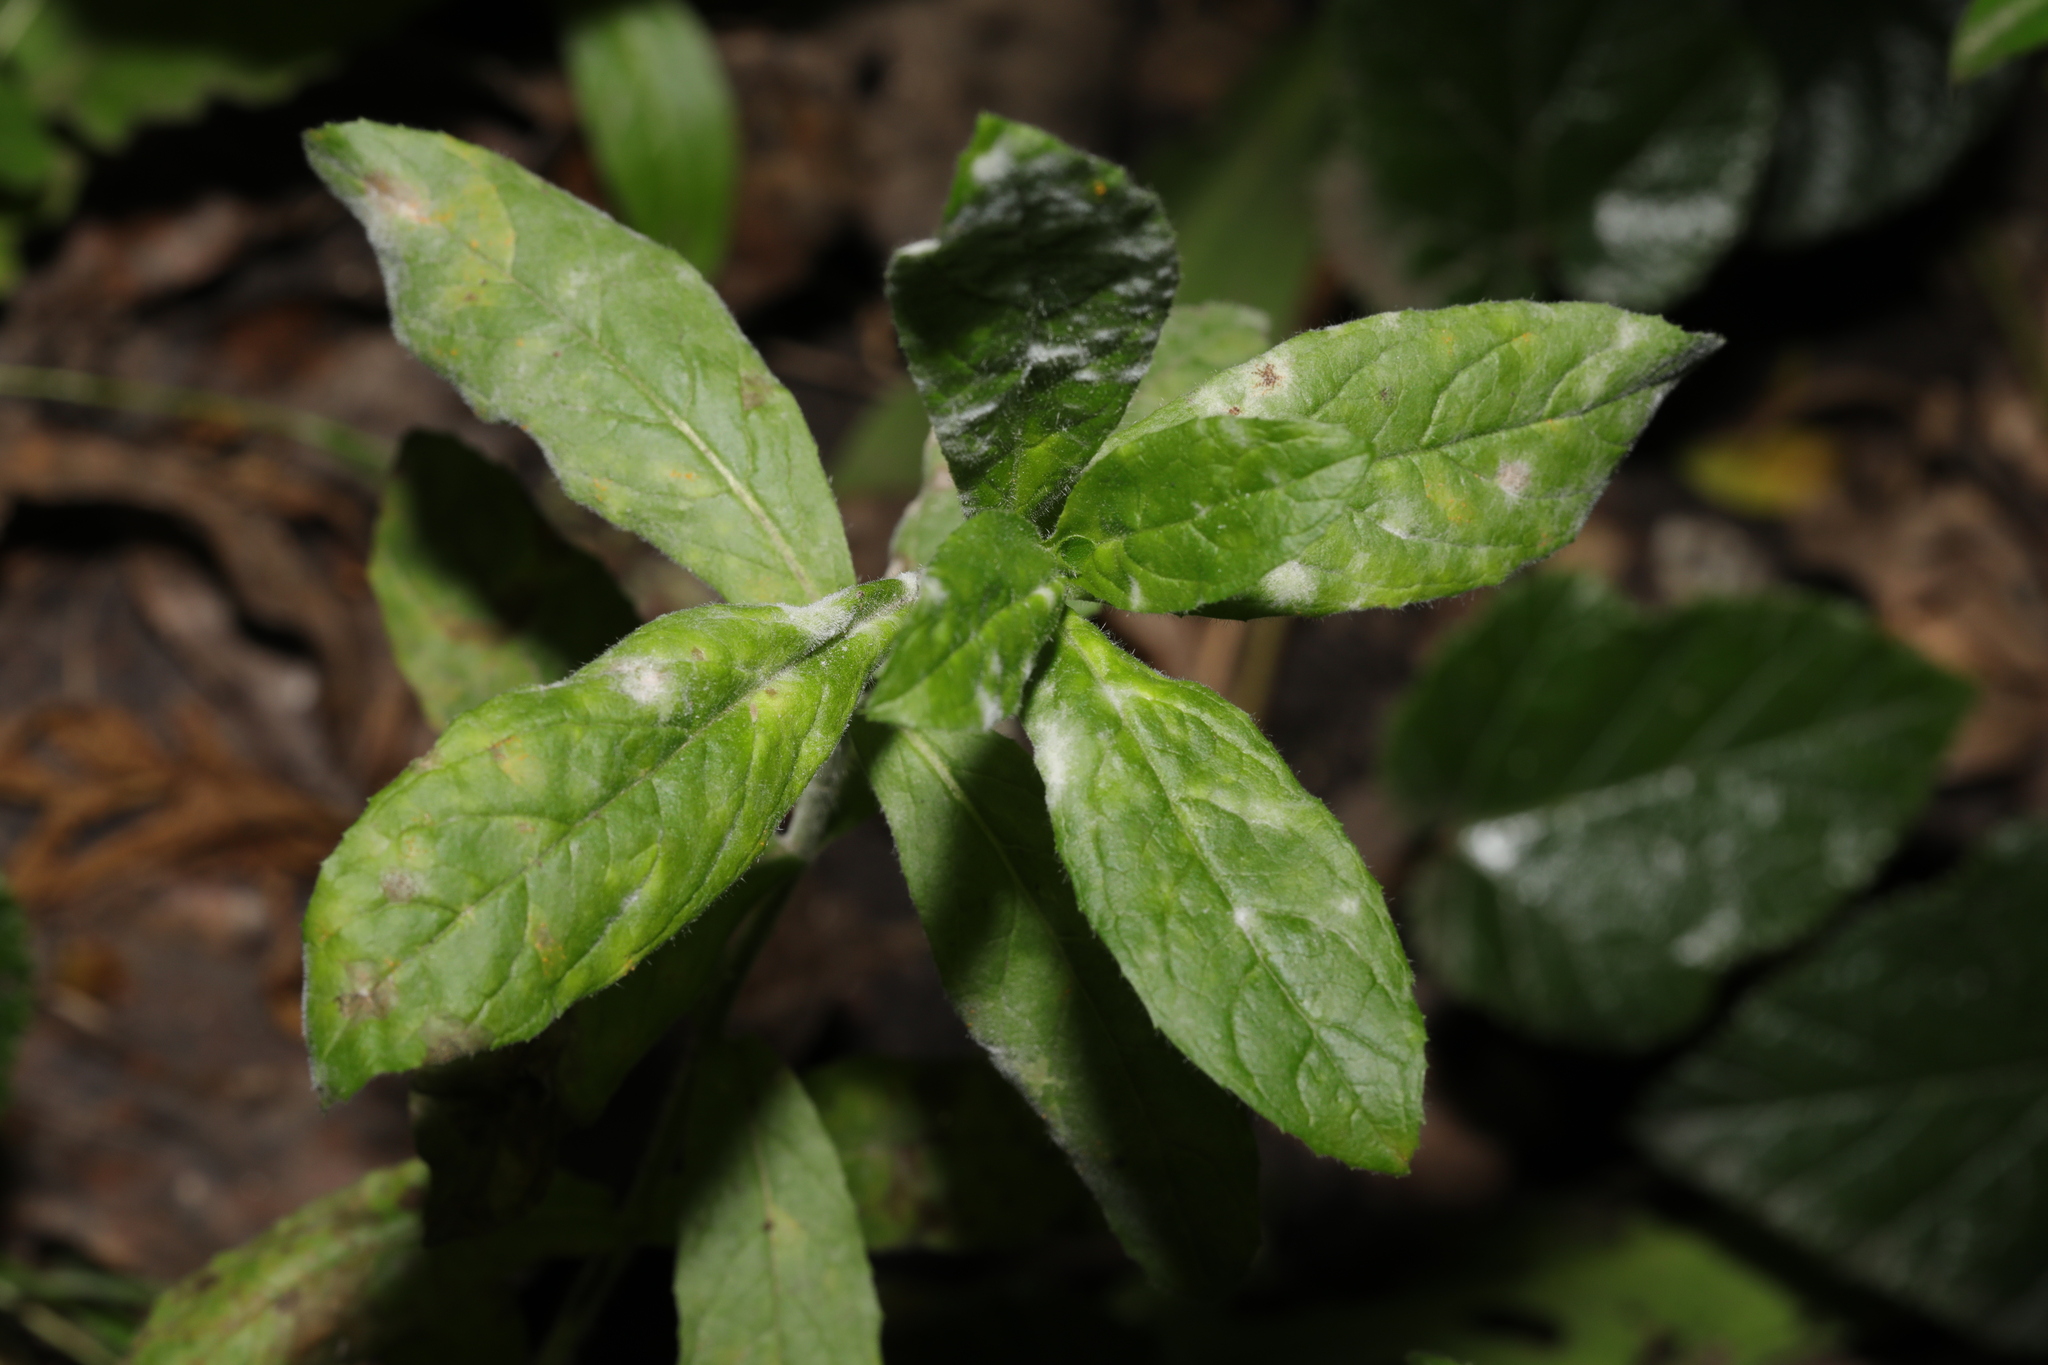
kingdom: Fungi
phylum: Ascomycota
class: Leotiomycetes
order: Helotiales
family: Erysiphaceae
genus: Podosphaera
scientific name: Podosphaera epilobii
